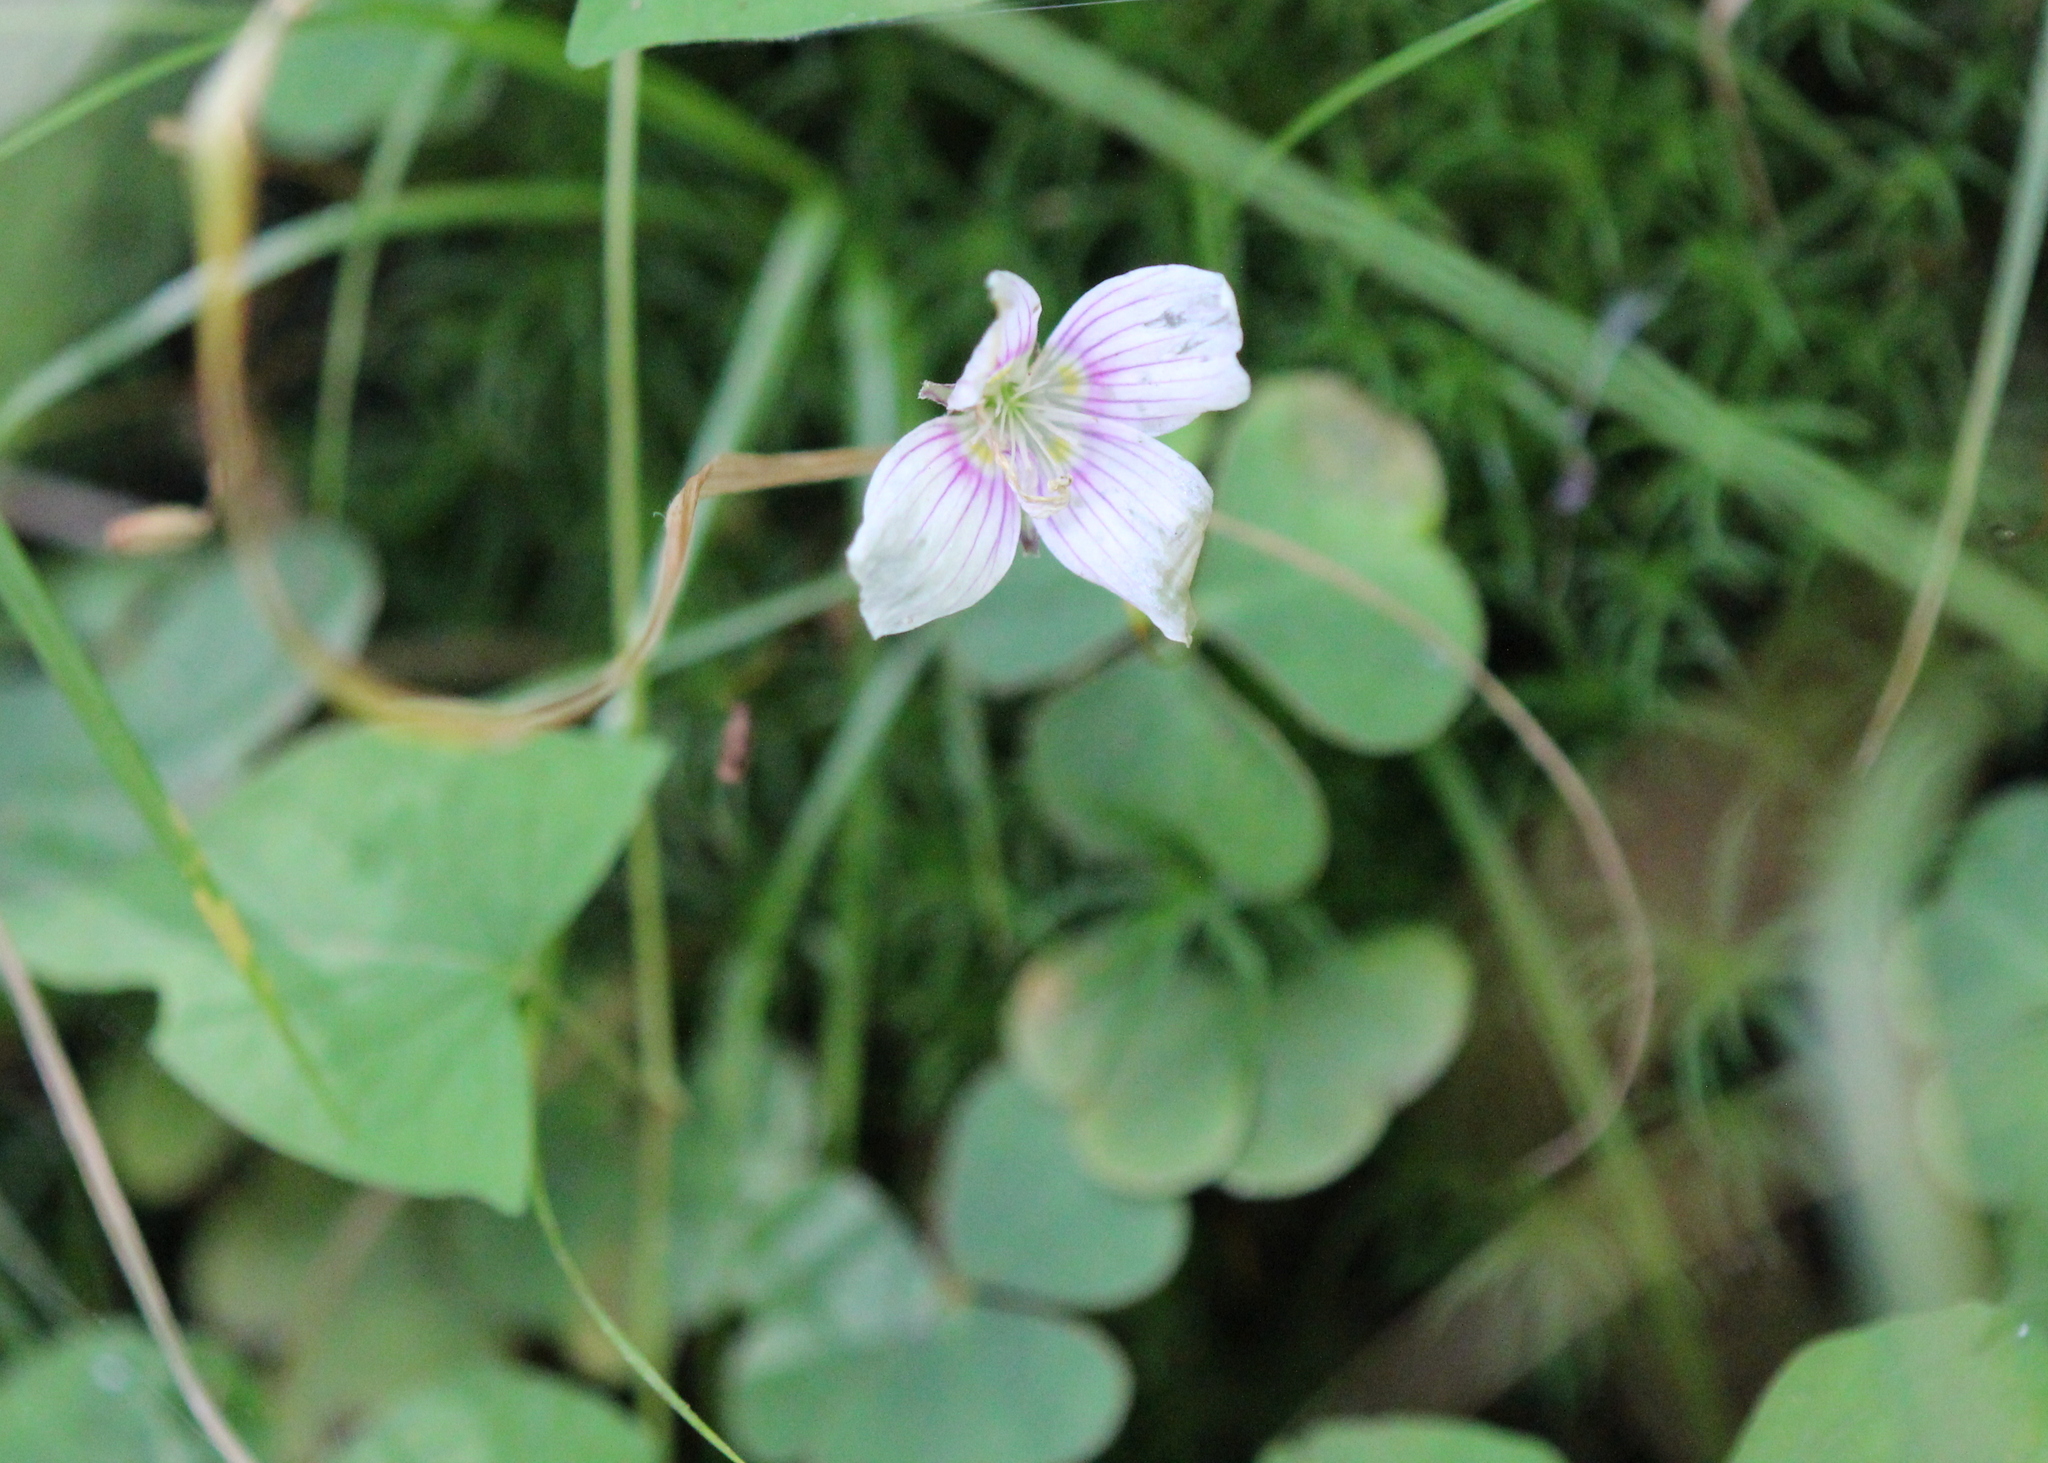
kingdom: Plantae
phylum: Tracheophyta
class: Magnoliopsida
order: Oxalidales
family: Oxalidaceae
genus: Oxalis
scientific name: Oxalis montana
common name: American wood-sorrel
